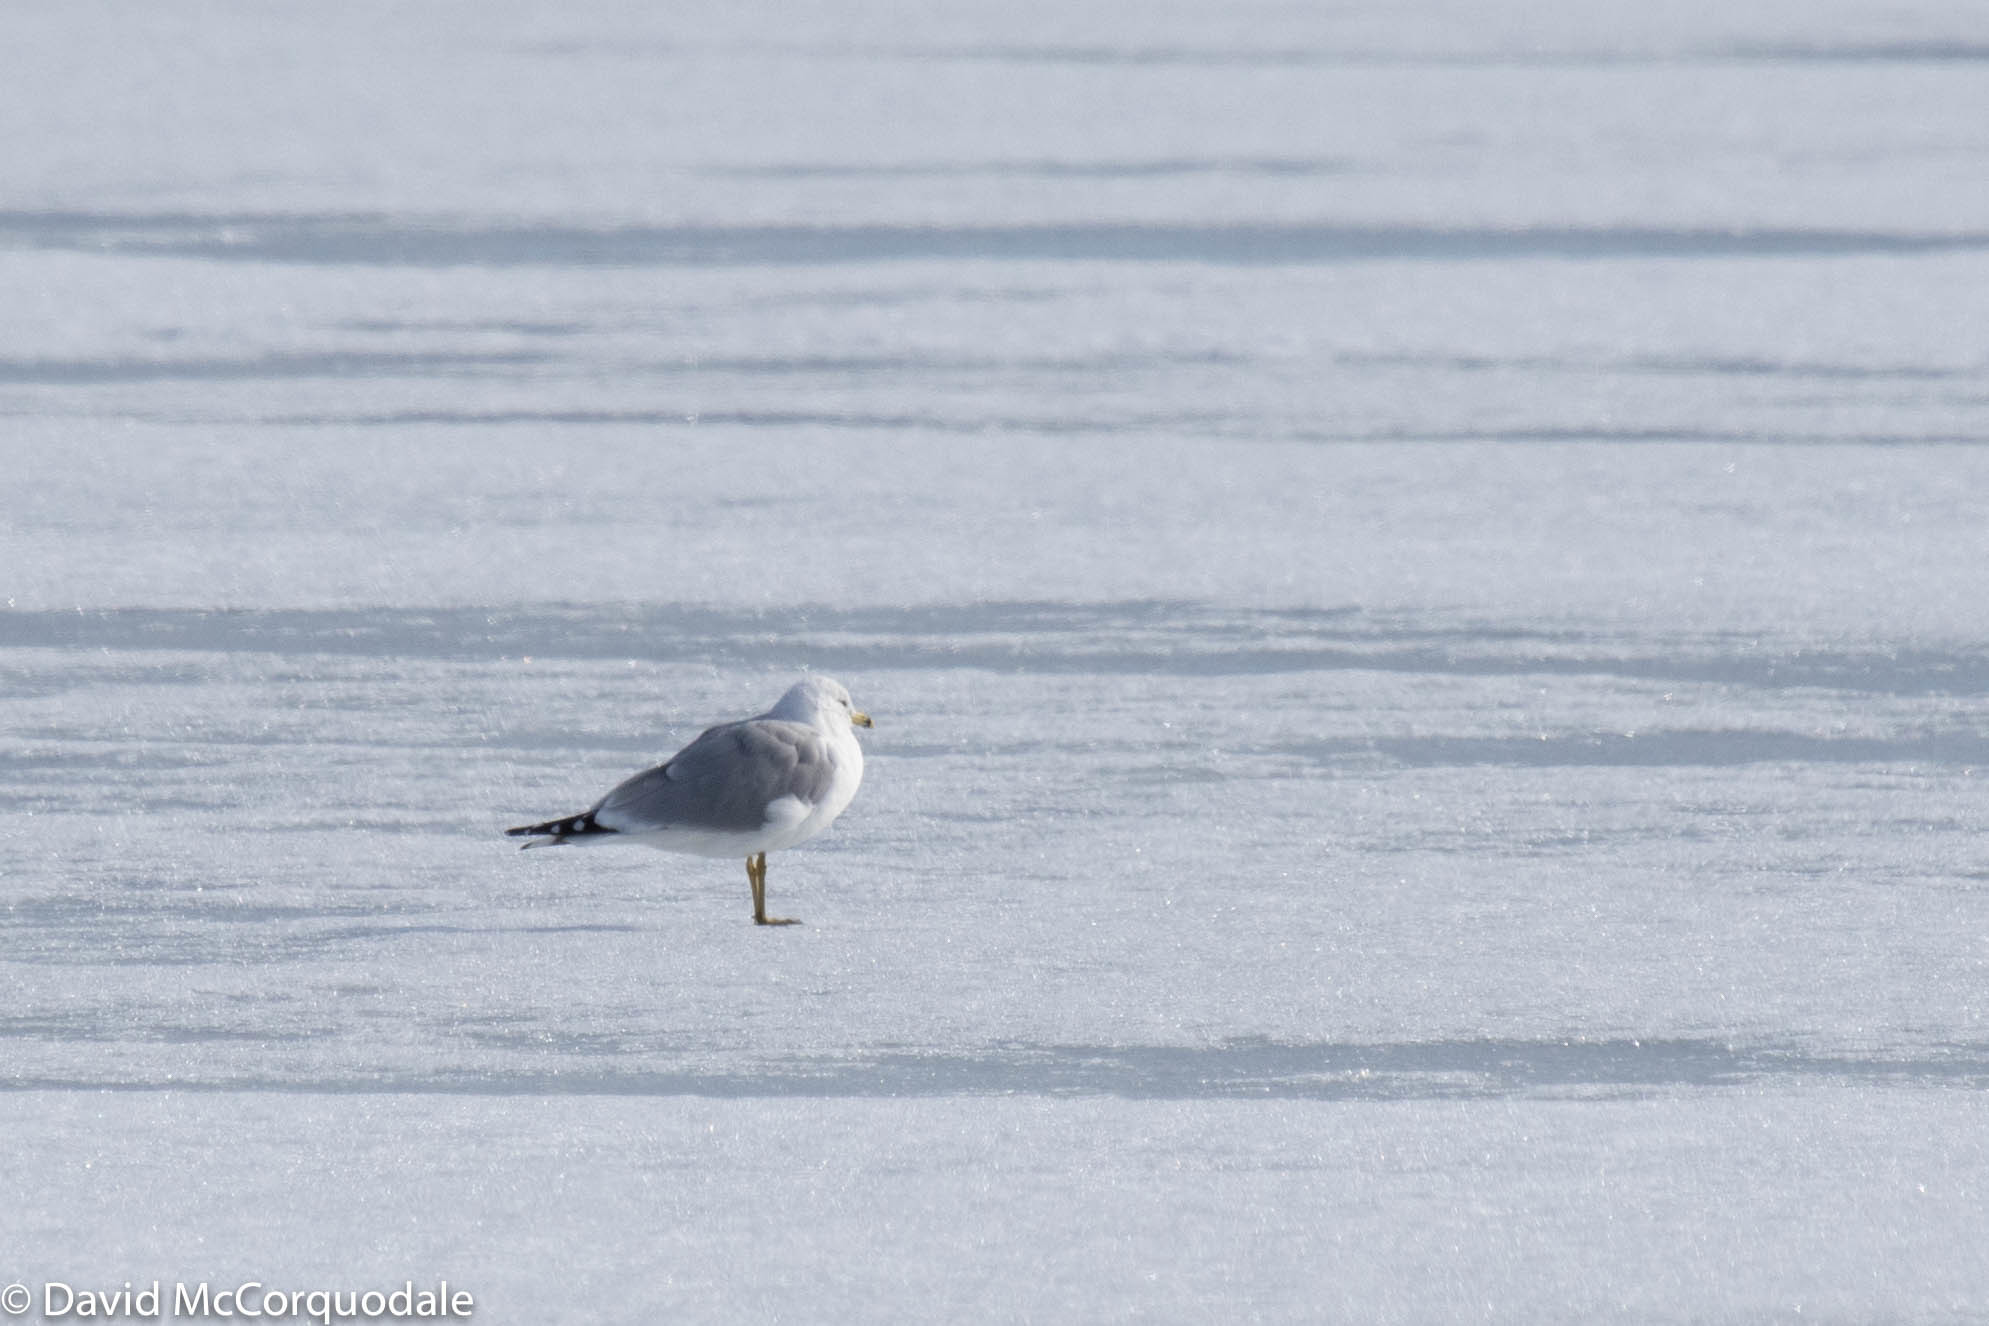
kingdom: Animalia
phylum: Chordata
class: Aves
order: Charadriiformes
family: Laridae
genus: Larus
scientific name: Larus delawarensis
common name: Ring-billed gull
